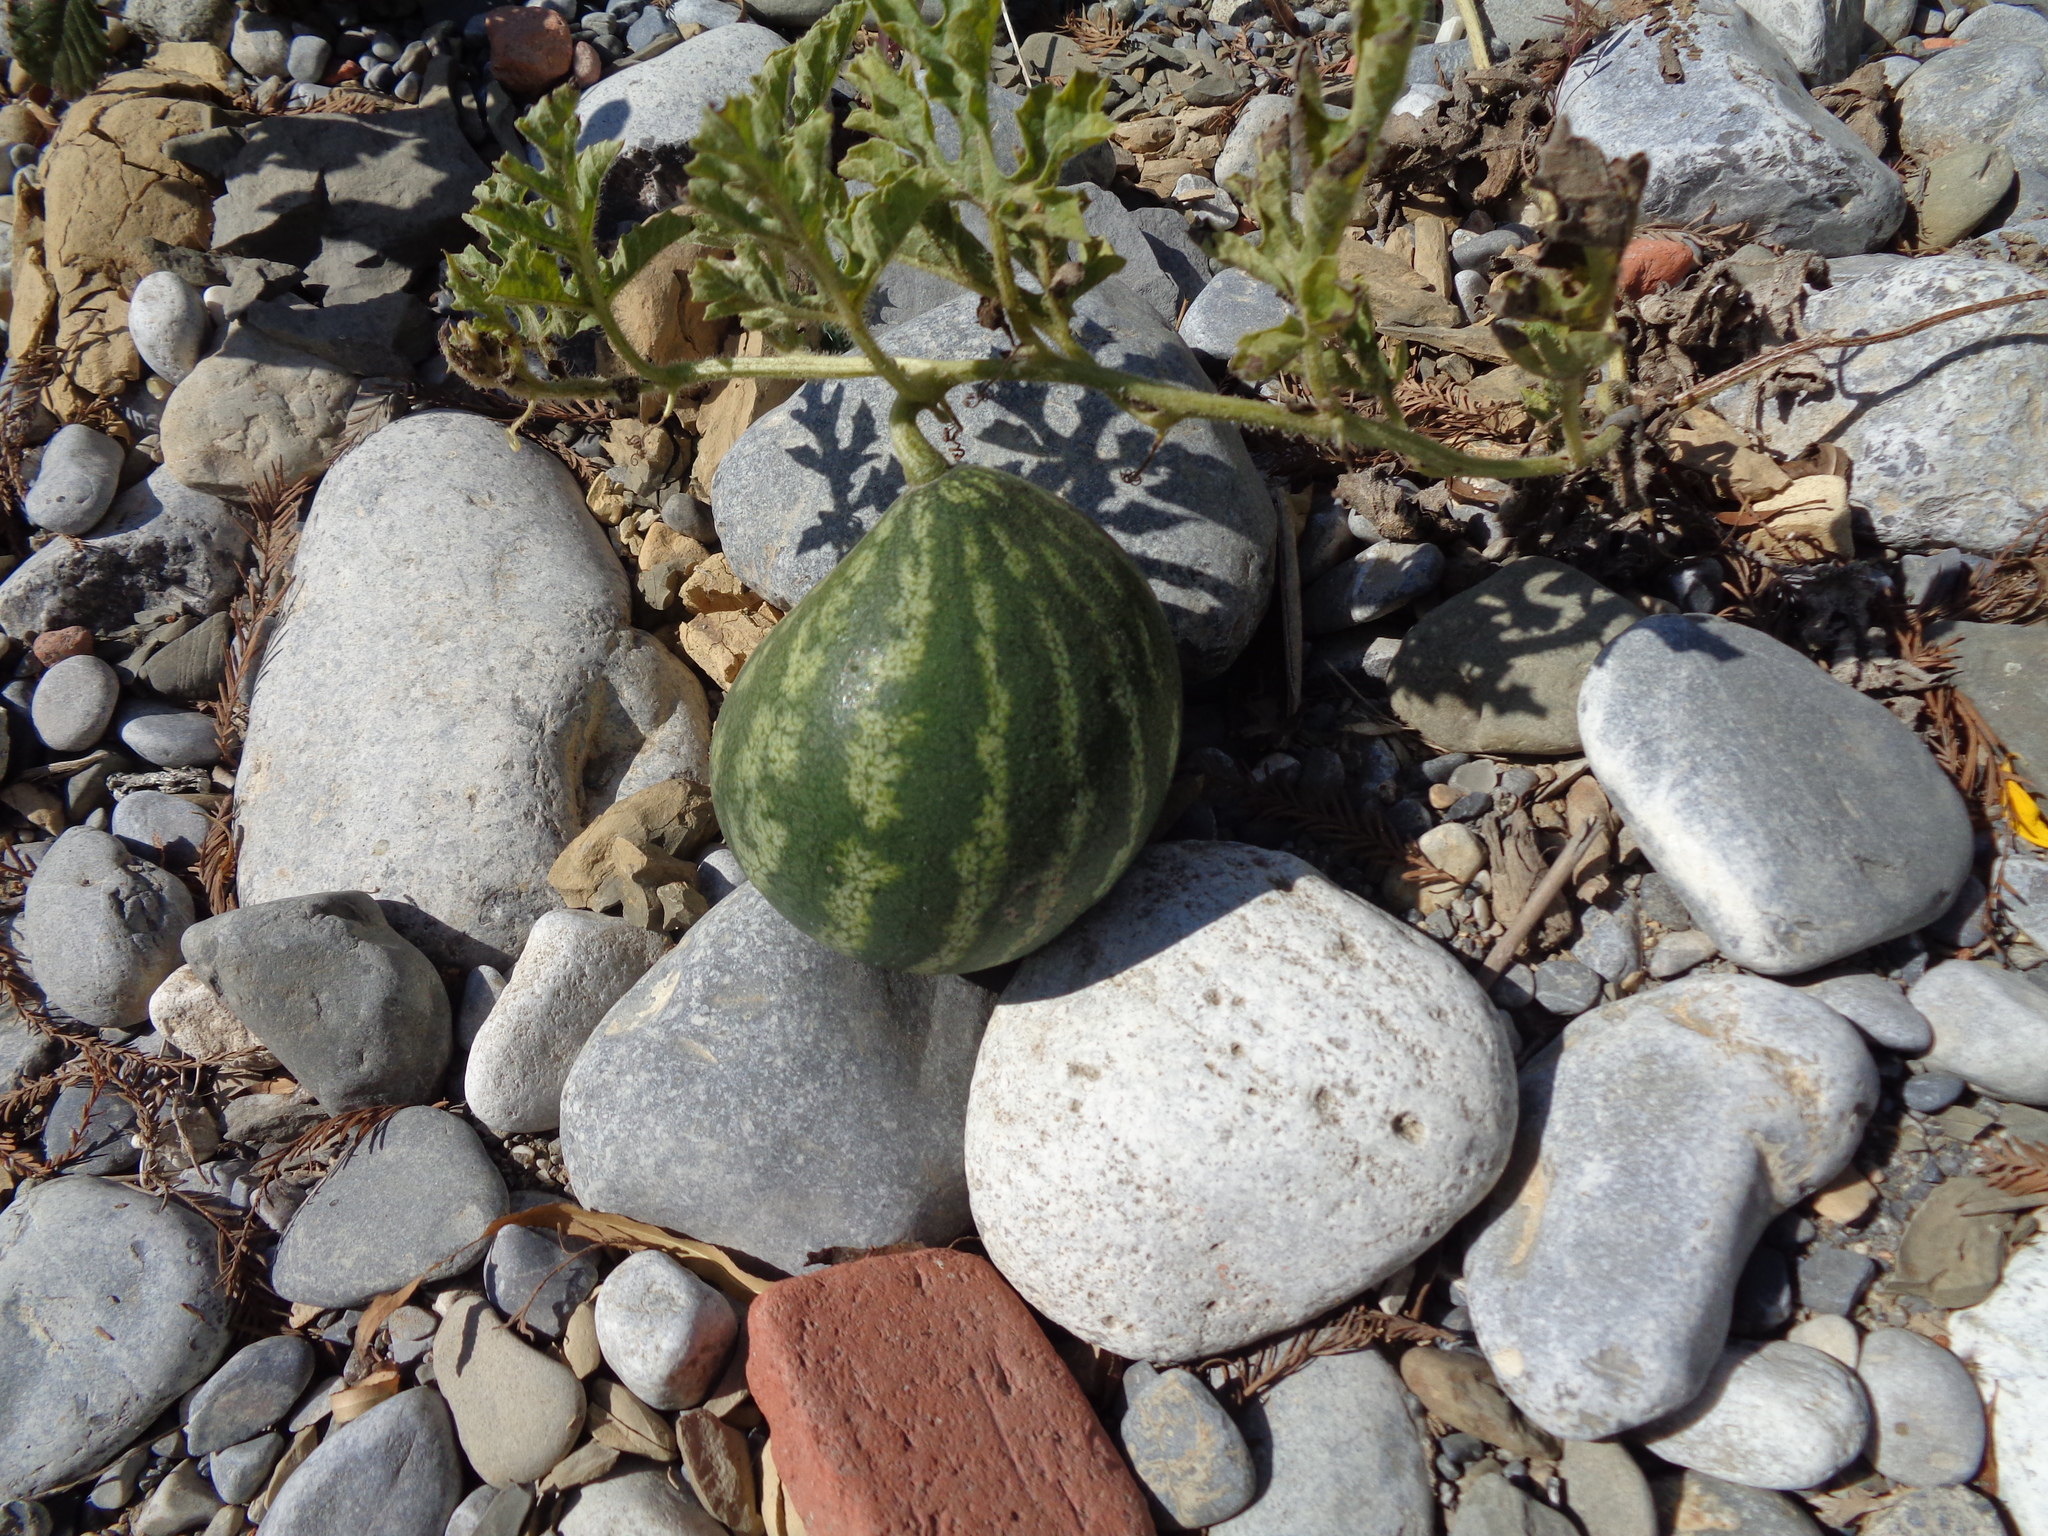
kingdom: Plantae
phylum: Tracheophyta
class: Magnoliopsida
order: Cucurbitales
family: Cucurbitaceae
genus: Citrullus
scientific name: Citrullus lanatus
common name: Watermelon
